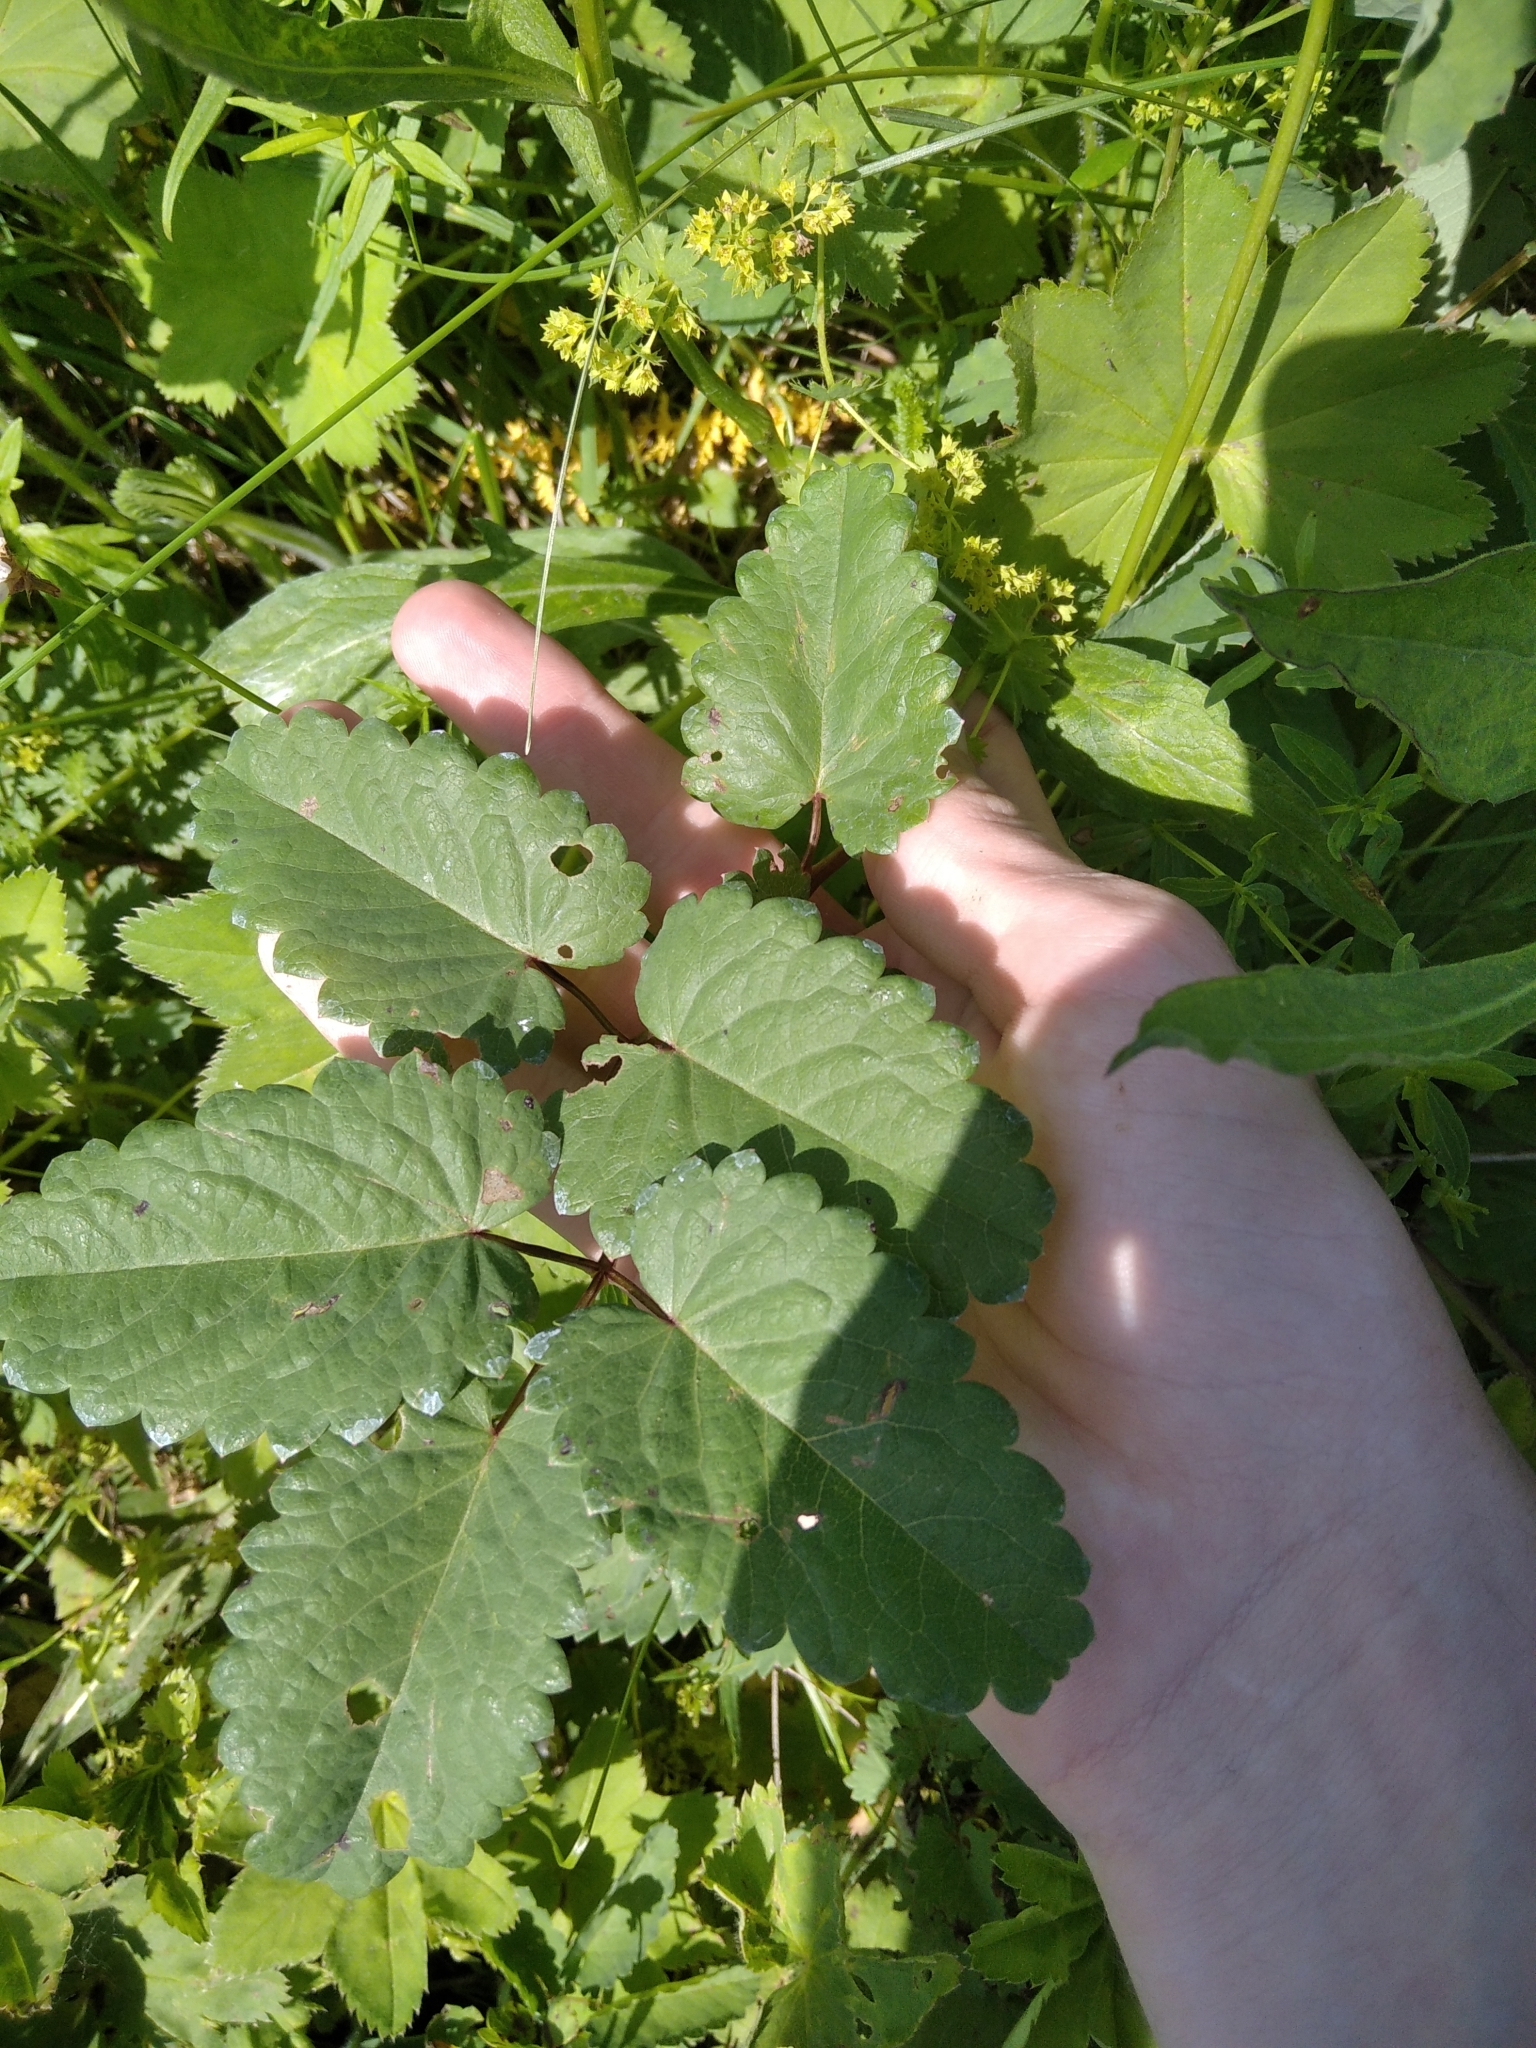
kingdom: Plantae
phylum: Tracheophyta
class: Magnoliopsida
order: Rosales
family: Rosaceae
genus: Sanguisorba
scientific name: Sanguisorba officinalis
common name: Great burnet
